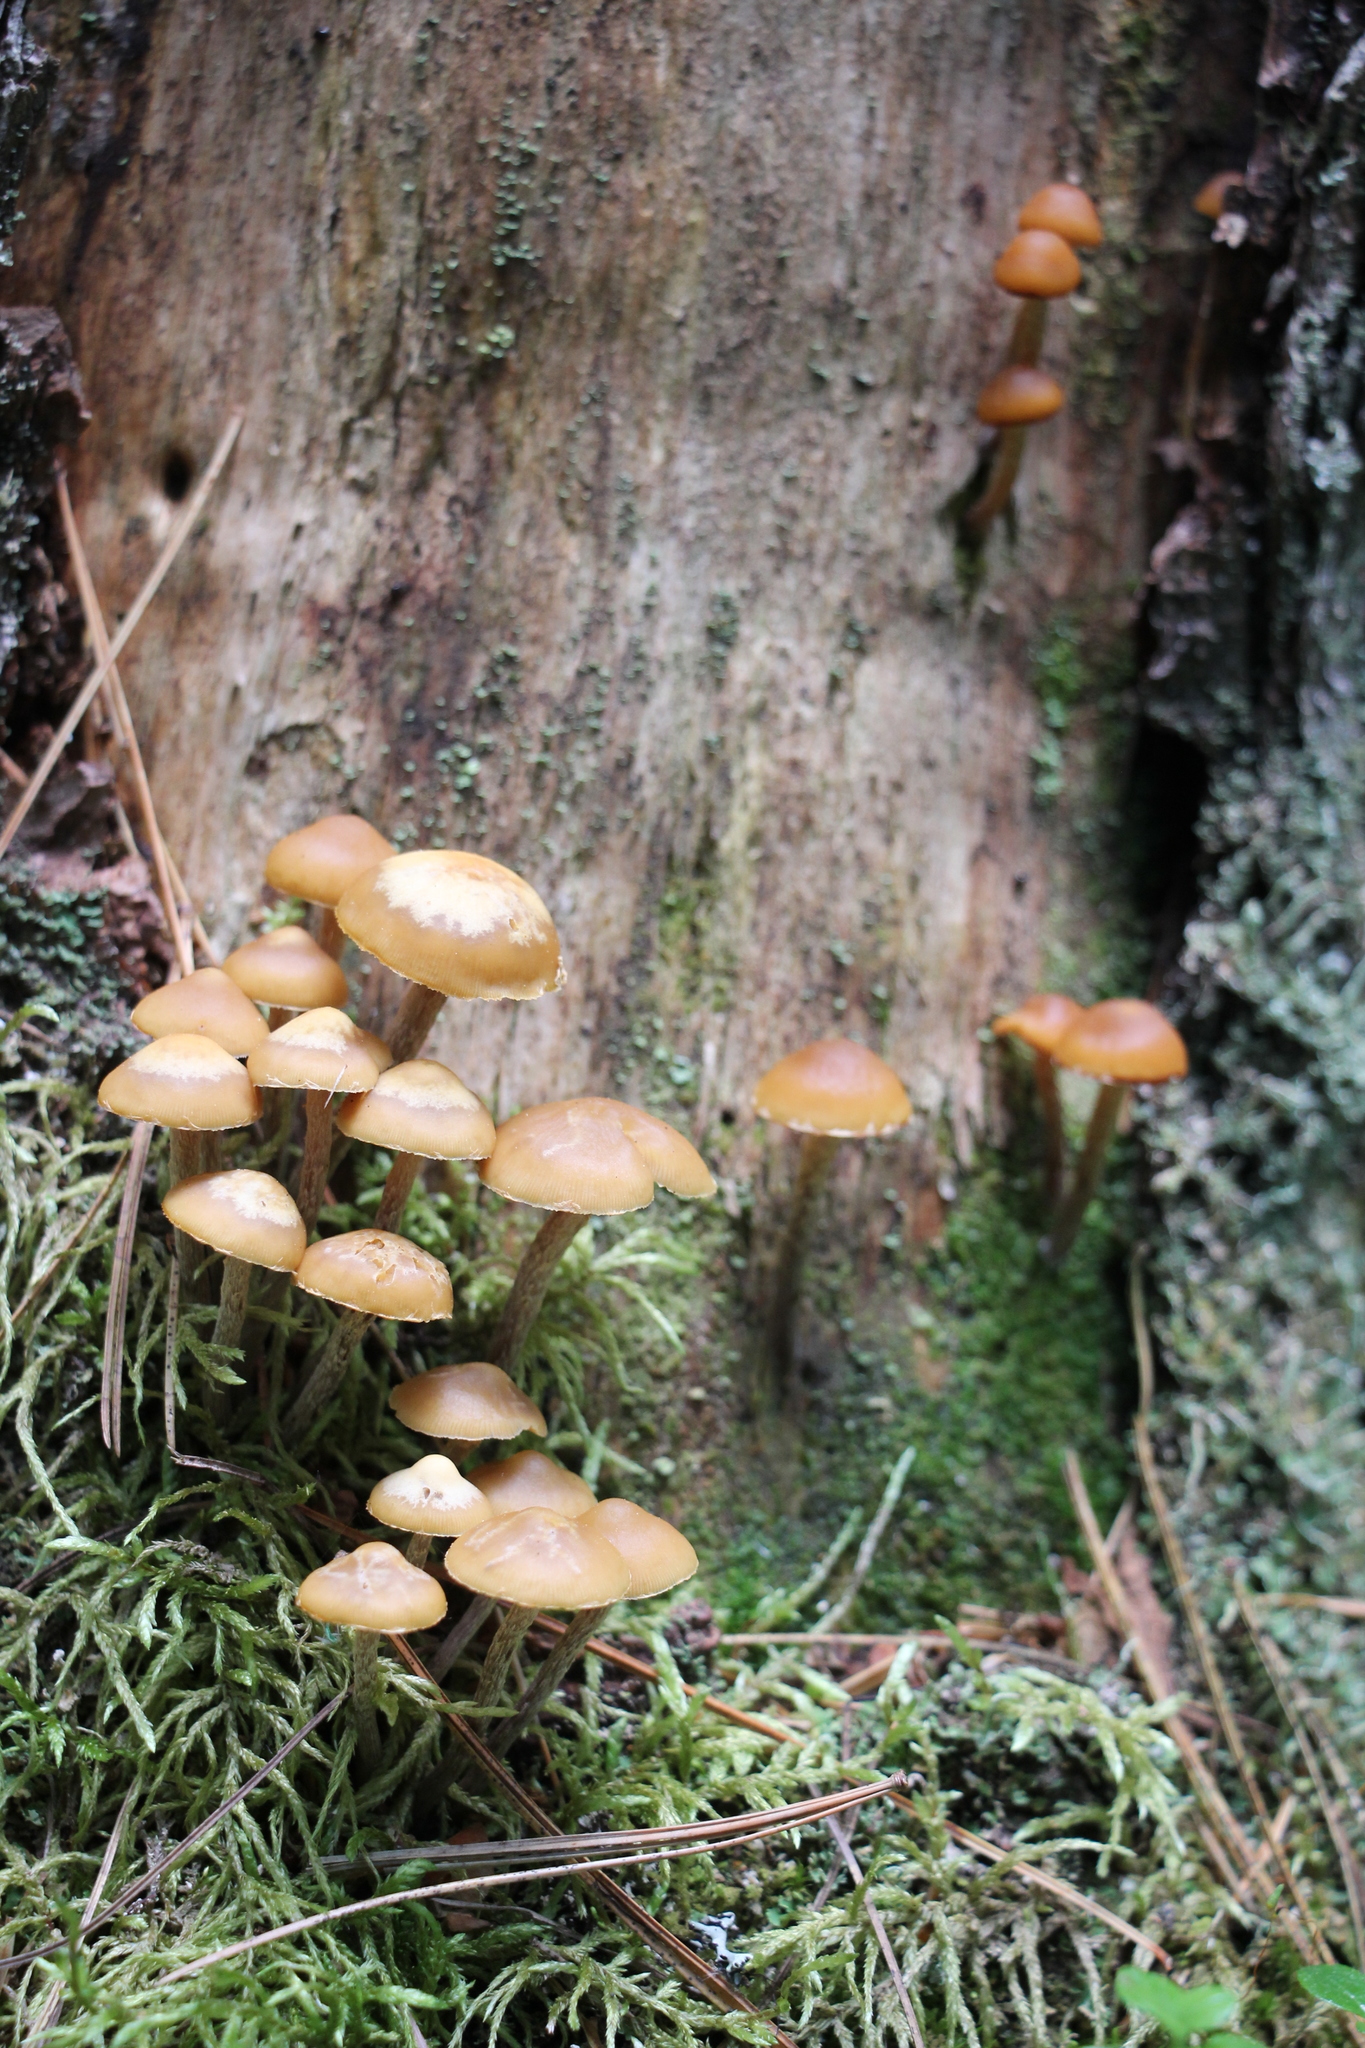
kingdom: Fungi
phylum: Basidiomycota
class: Agaricomycetes
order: Agaricales
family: Strophariaceae
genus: Pholiota
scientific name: Pholiota lignicola
